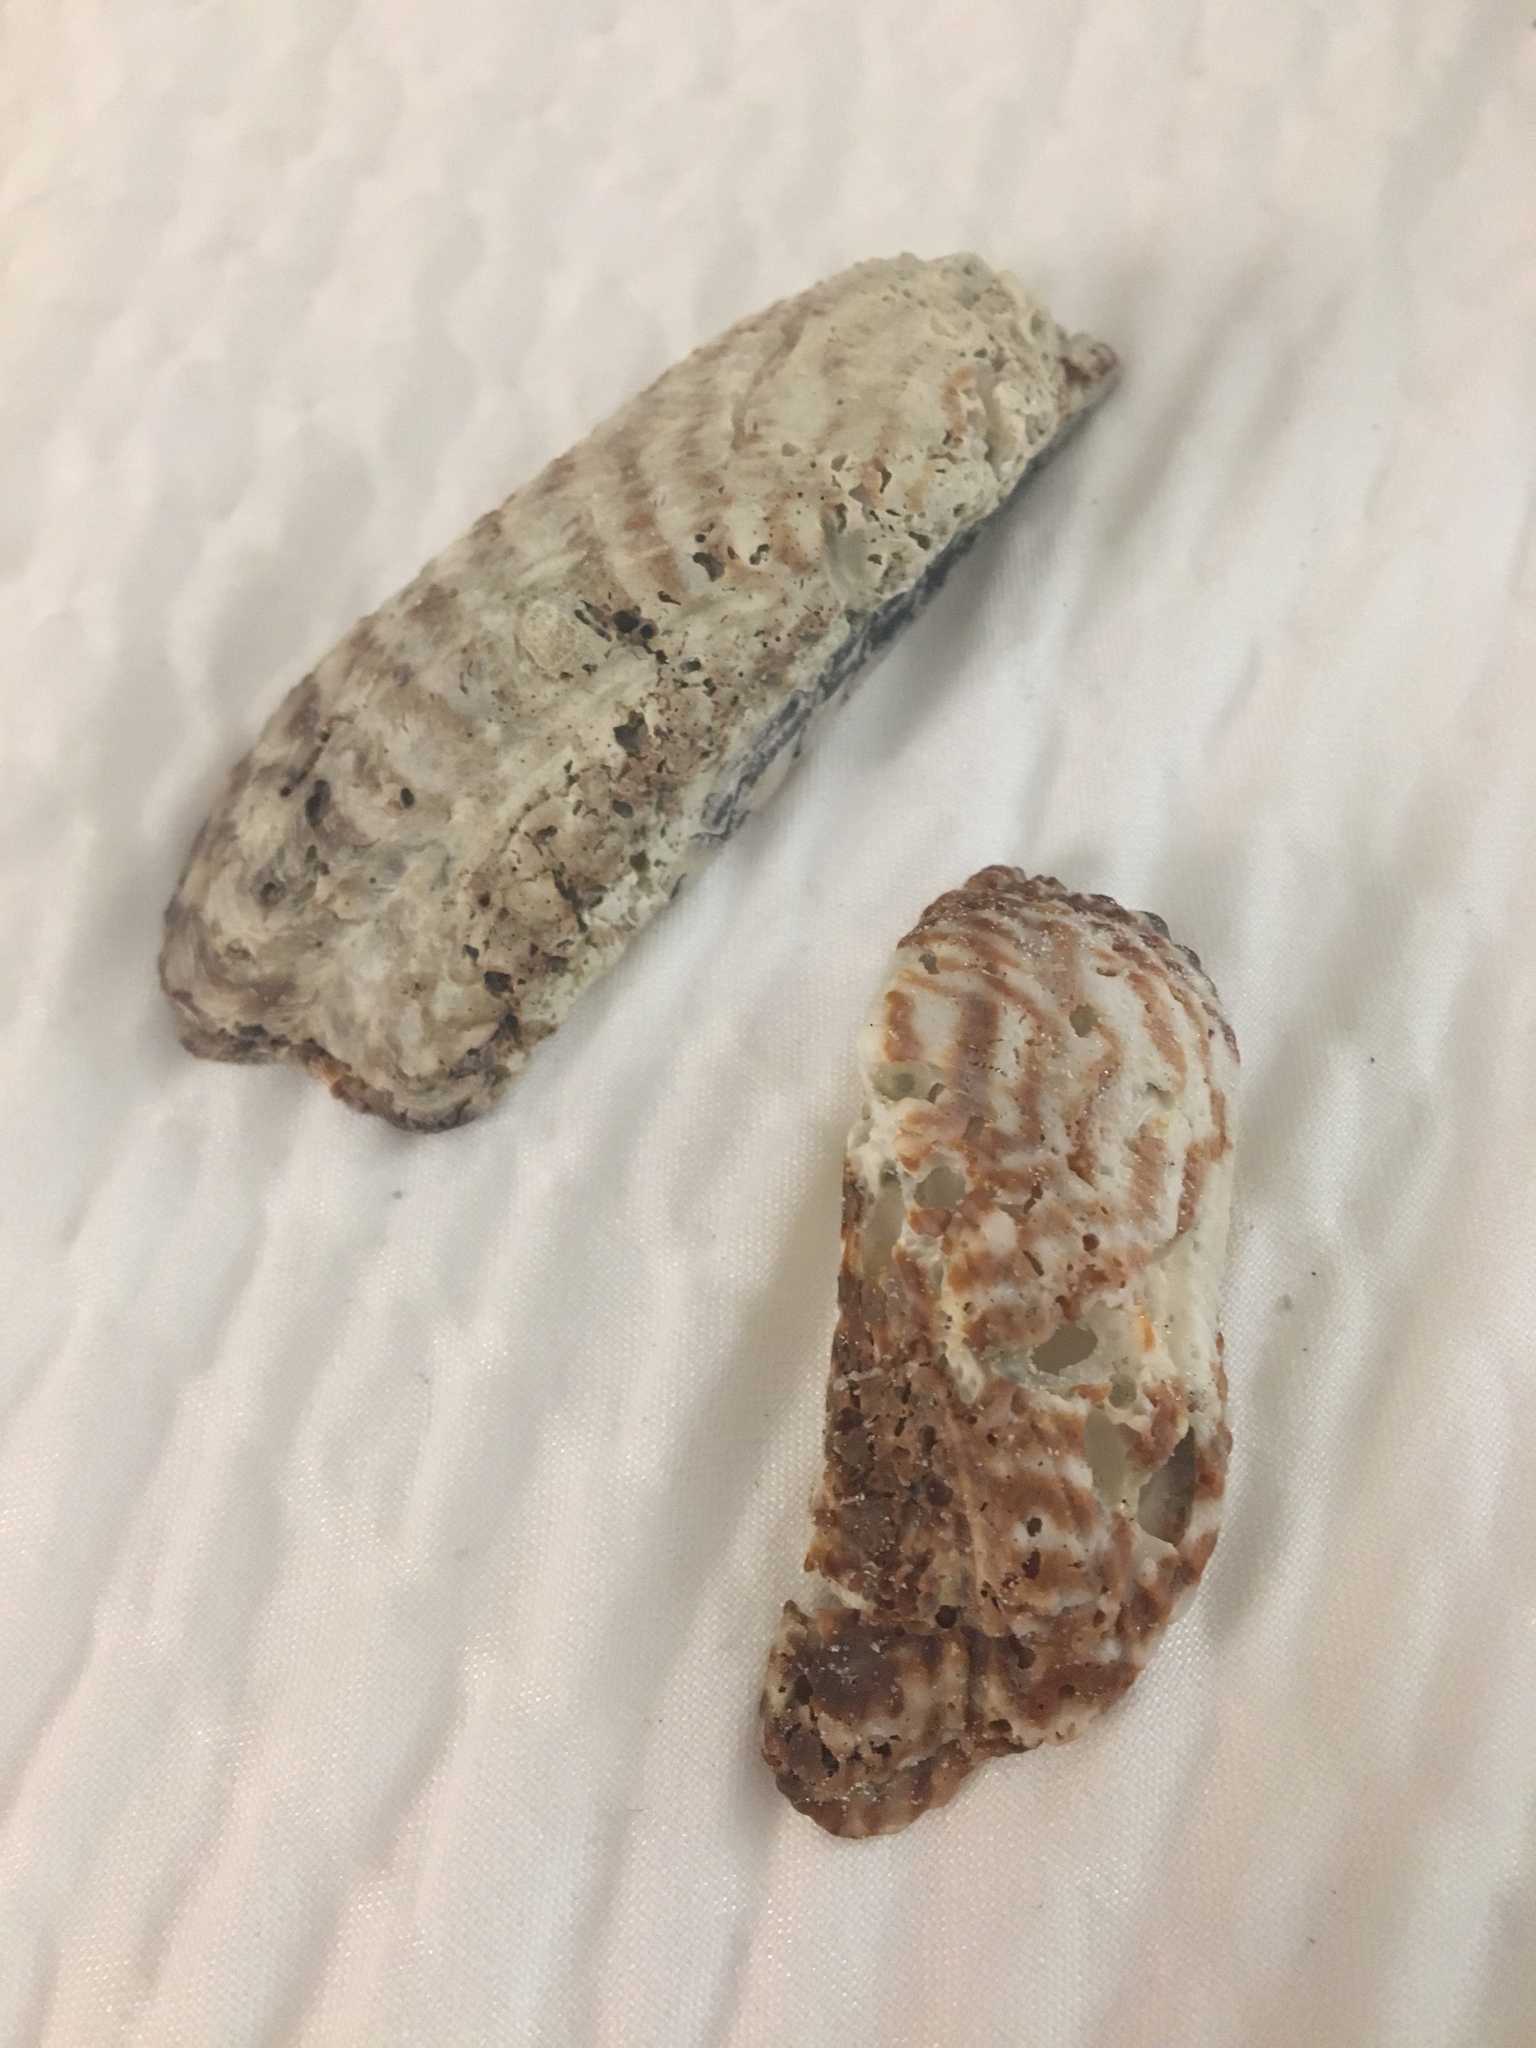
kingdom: Animalia
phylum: Mollusca
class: Bivalvia
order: Arcida
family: Arcidae
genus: Arca
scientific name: Arca zebra
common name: Atlantic turkey wing
